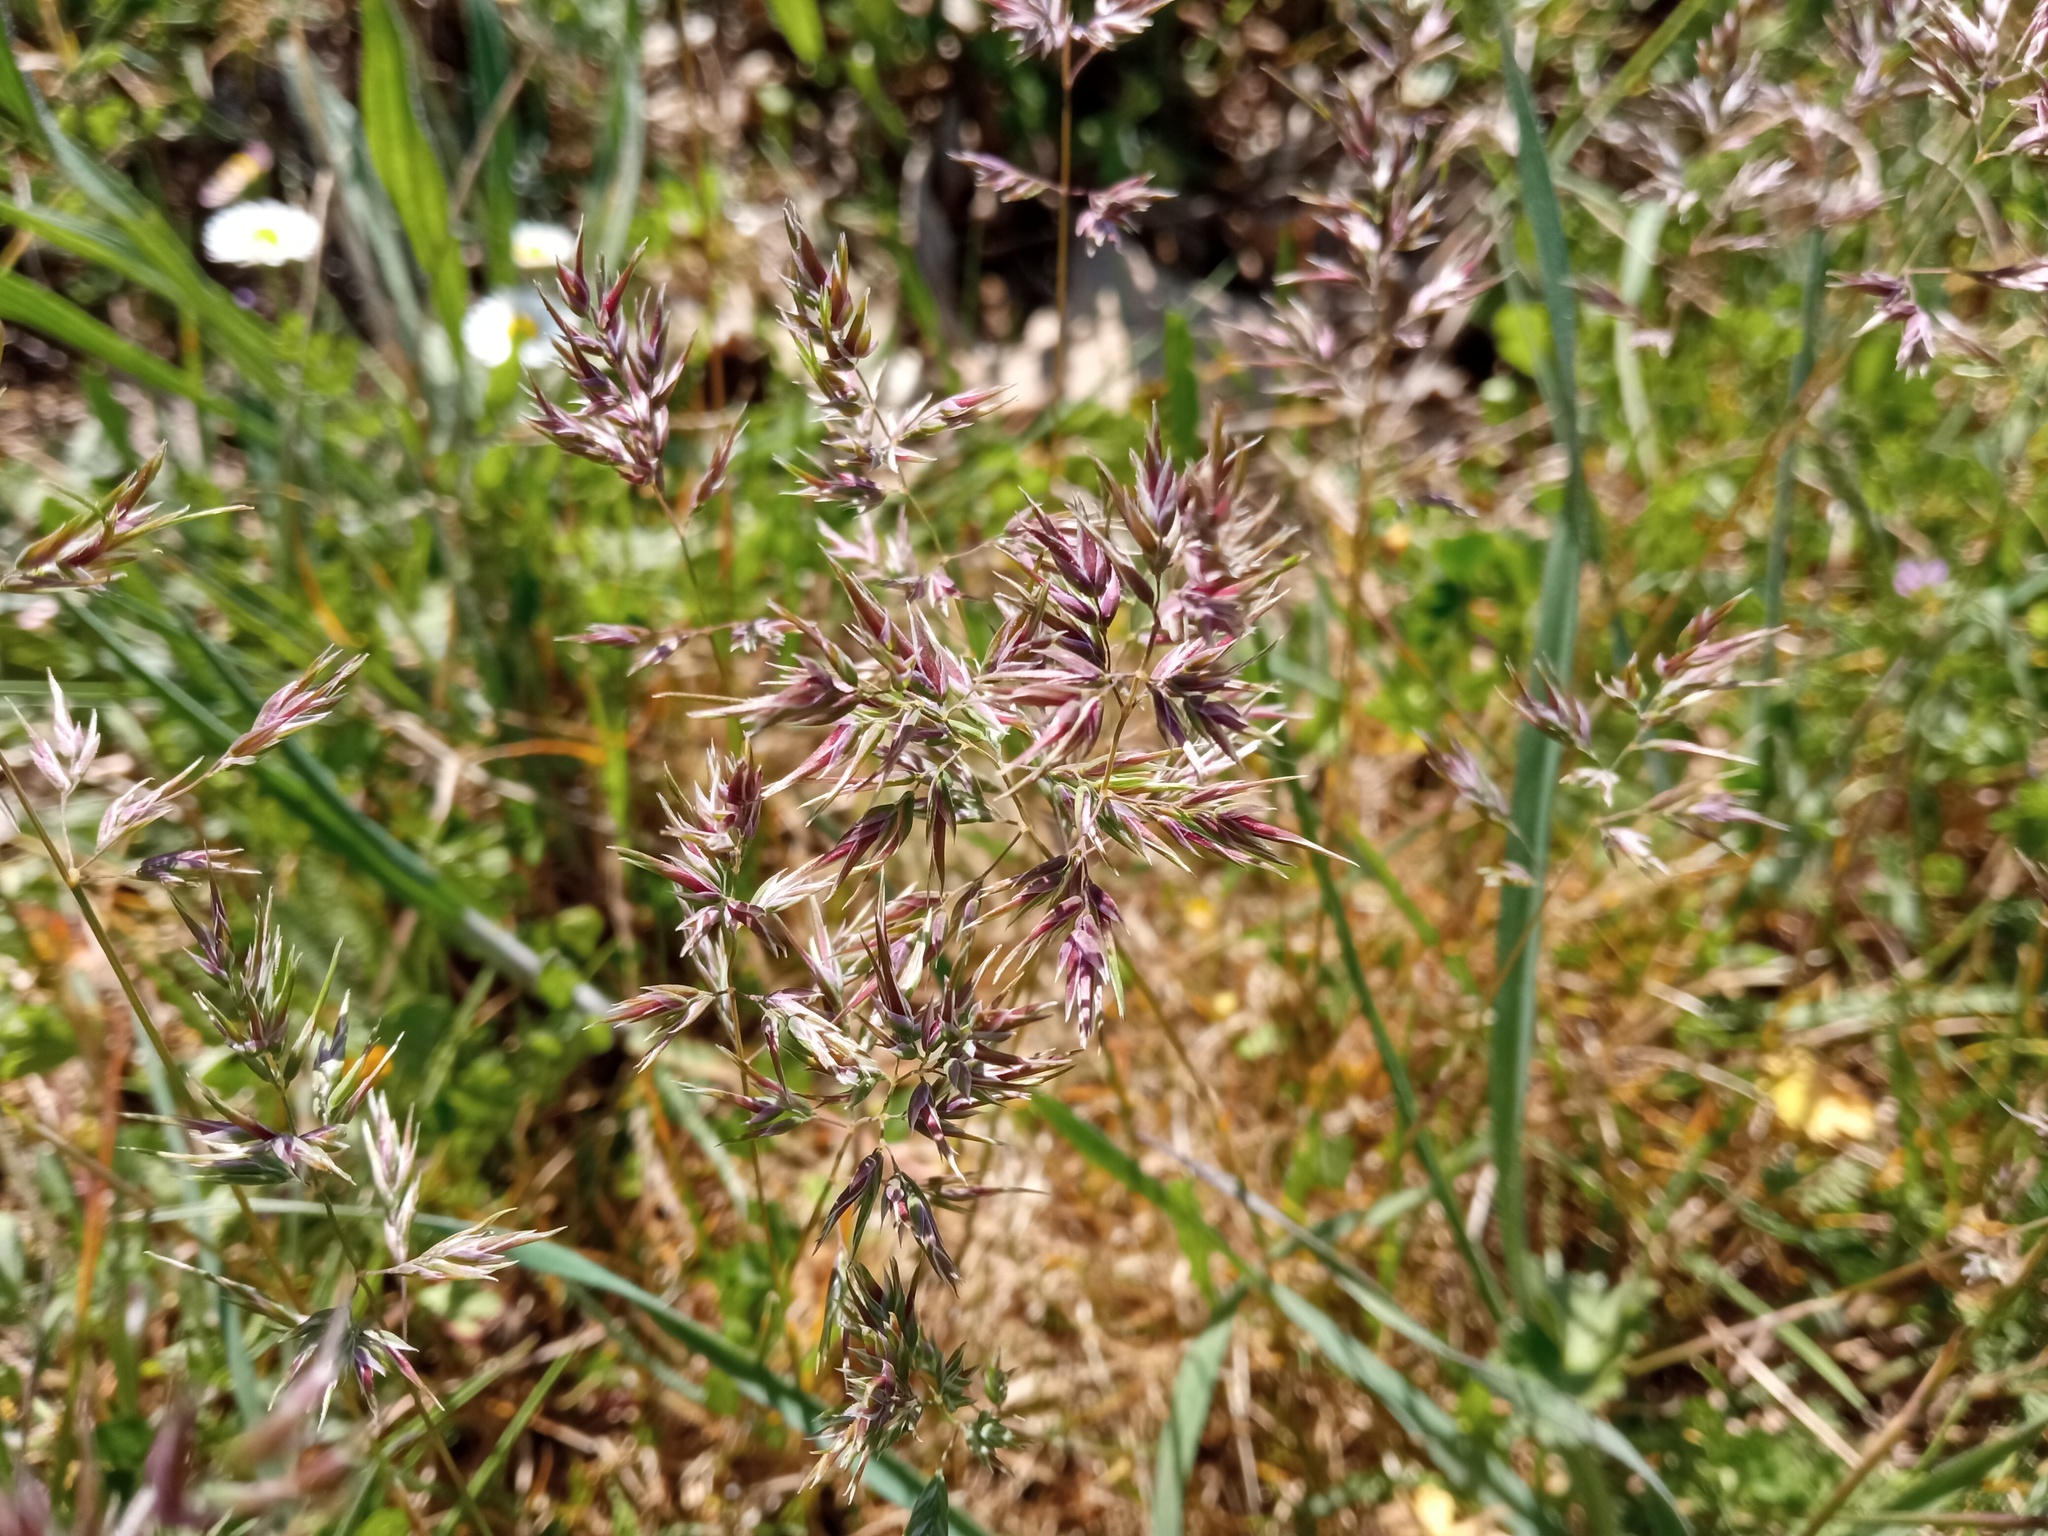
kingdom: Plantae
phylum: Tracheophyta
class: Liliopsida
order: Poales
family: Poaceae
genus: Poa
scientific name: Poa bulbosa
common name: Bulbous bluegrass
